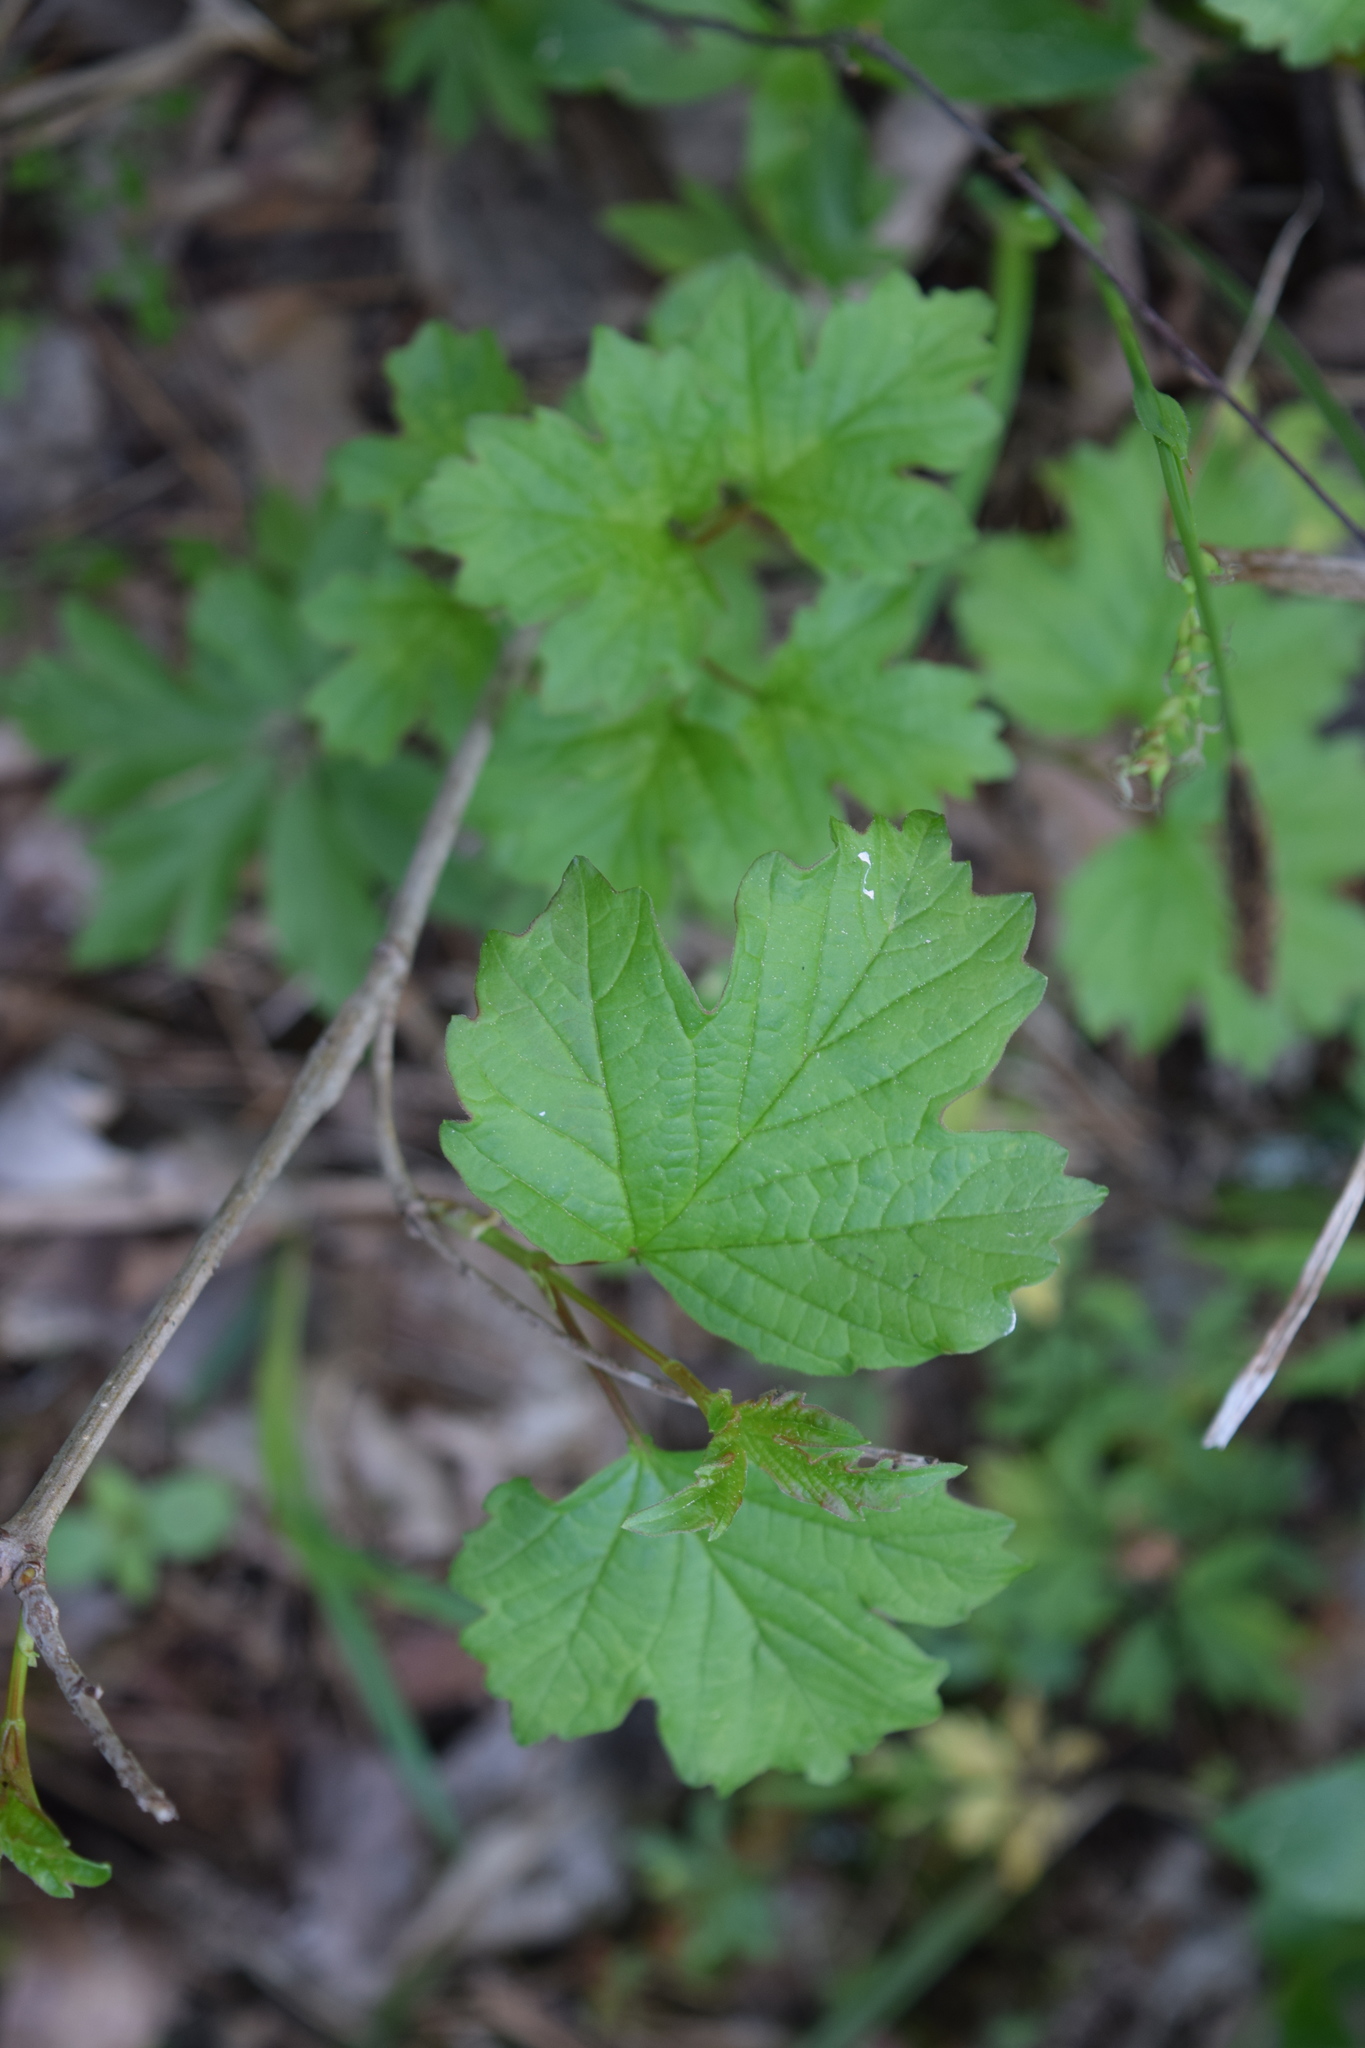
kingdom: Plantae
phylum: Tracheophyta
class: Magnoliopsida
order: Dipsacales
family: Viburnaceae
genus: Viburnum
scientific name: Viburnum opulus
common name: Guelder-rose
